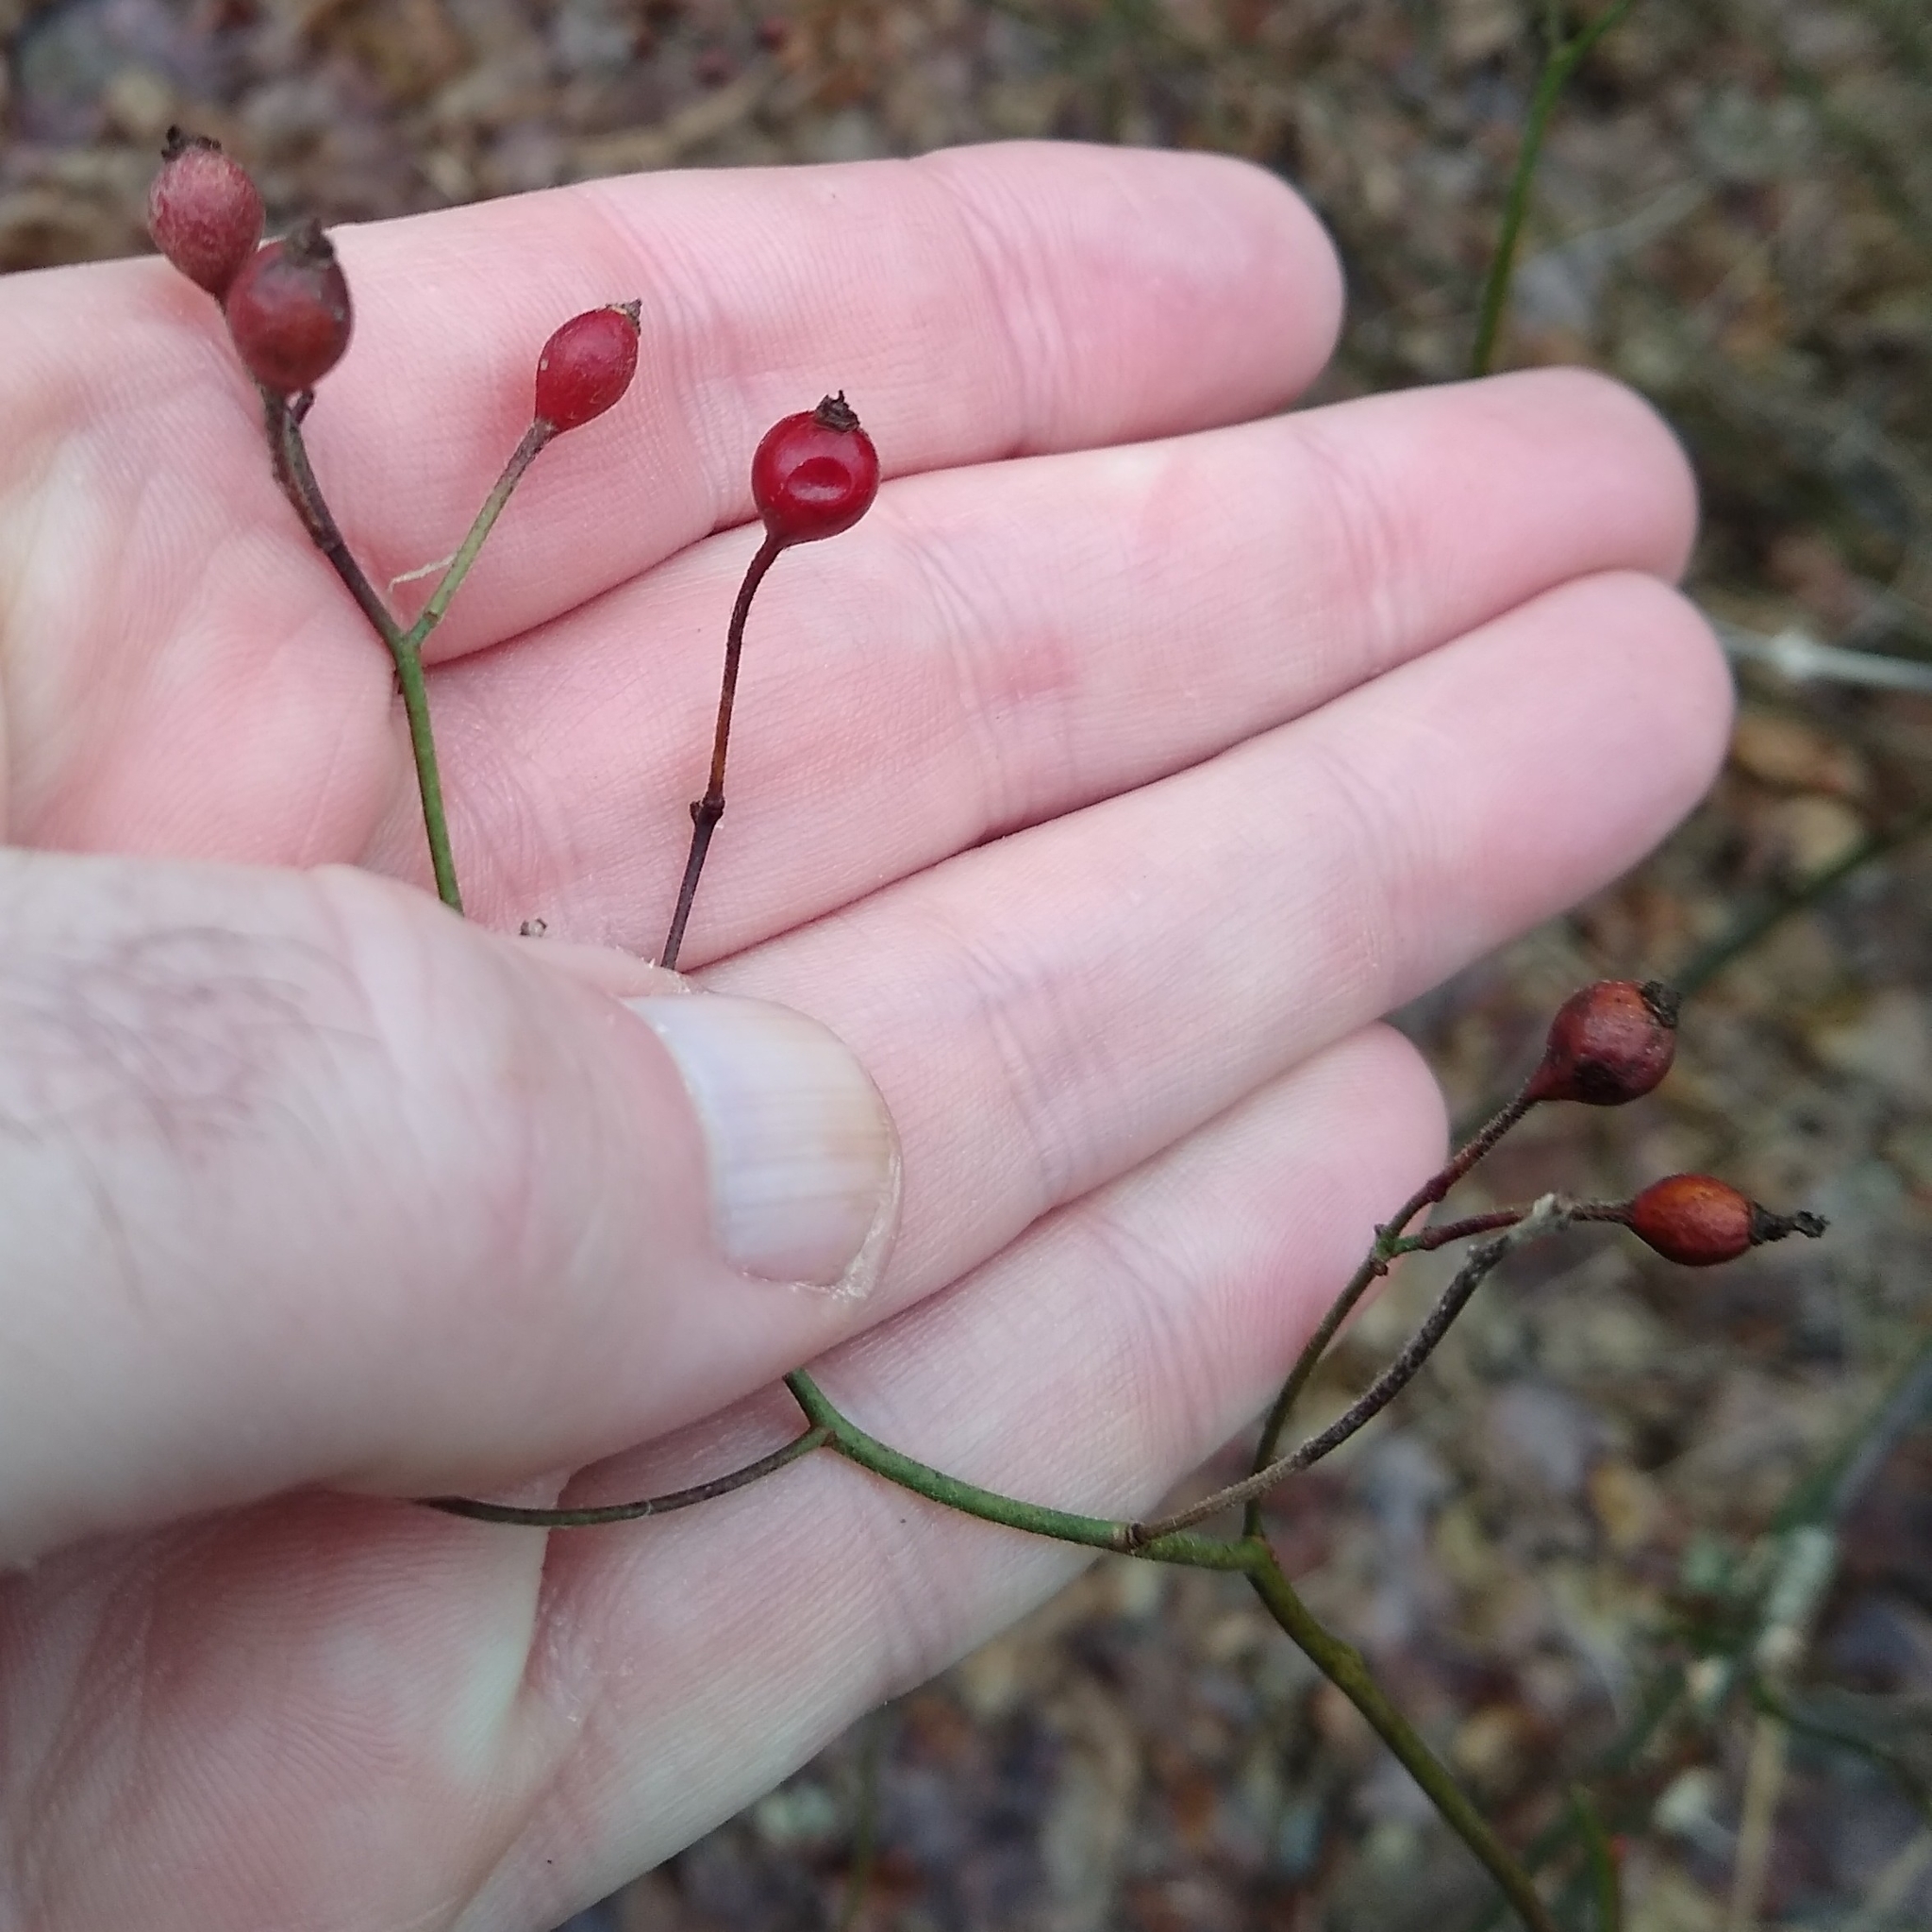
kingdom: Plantae
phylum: Tracheophyta
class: Magnoliopsida
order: Rosales
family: Rosaceae
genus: Rosa
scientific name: Rosa multiflora
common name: Multiflora rose
